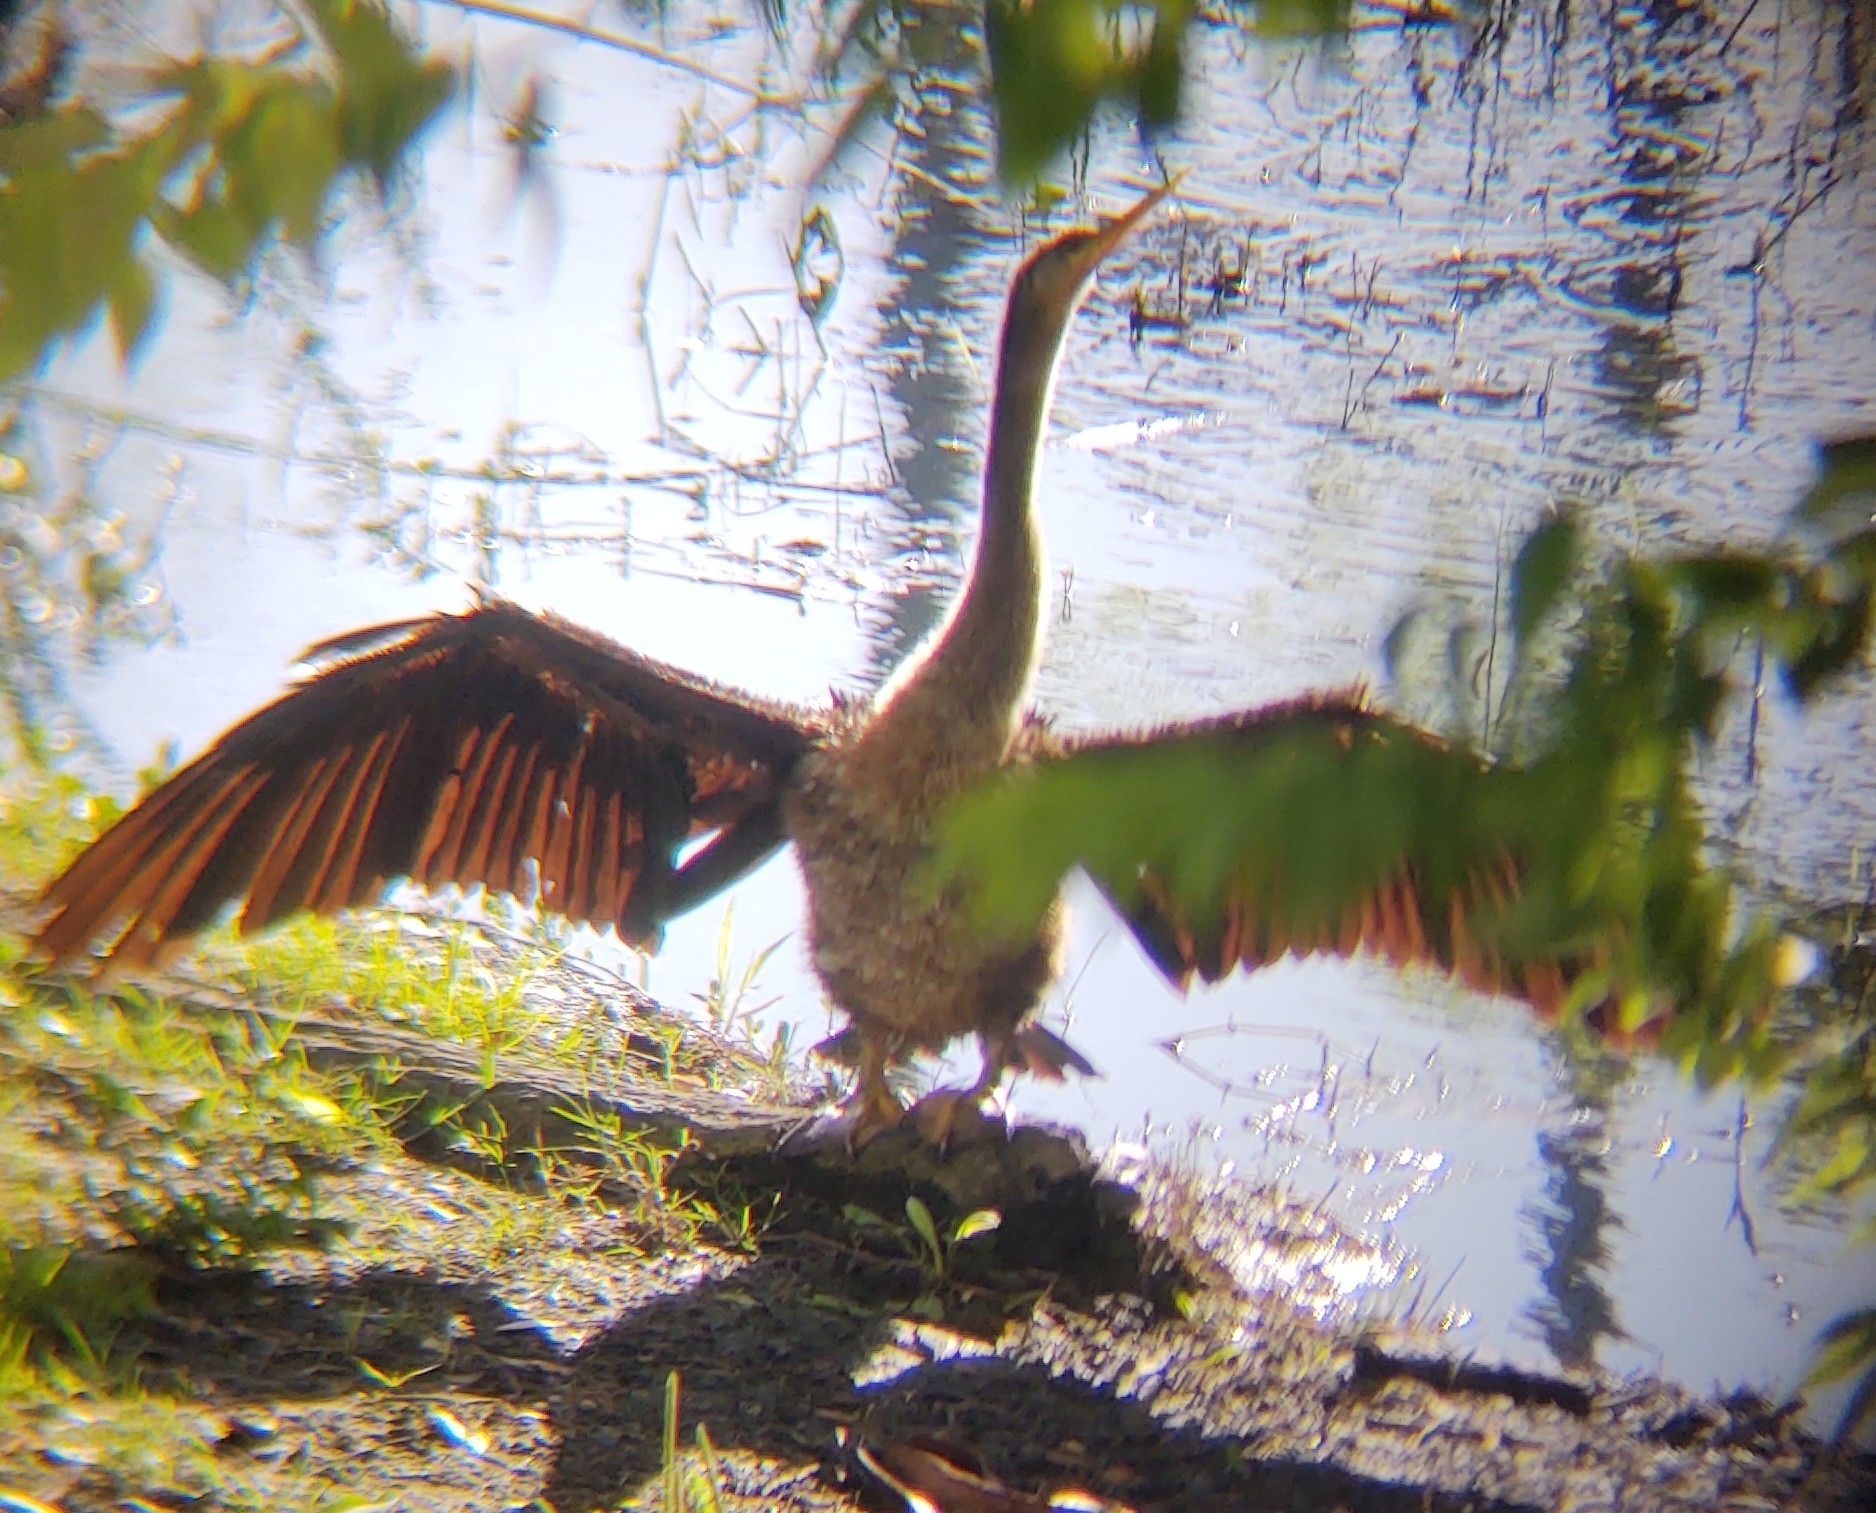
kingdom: Animalia
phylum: Chordata
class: Aves
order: Suliformes
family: Anhingidae
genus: Anhinga
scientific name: Anhinga anhinga
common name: Anhinga
